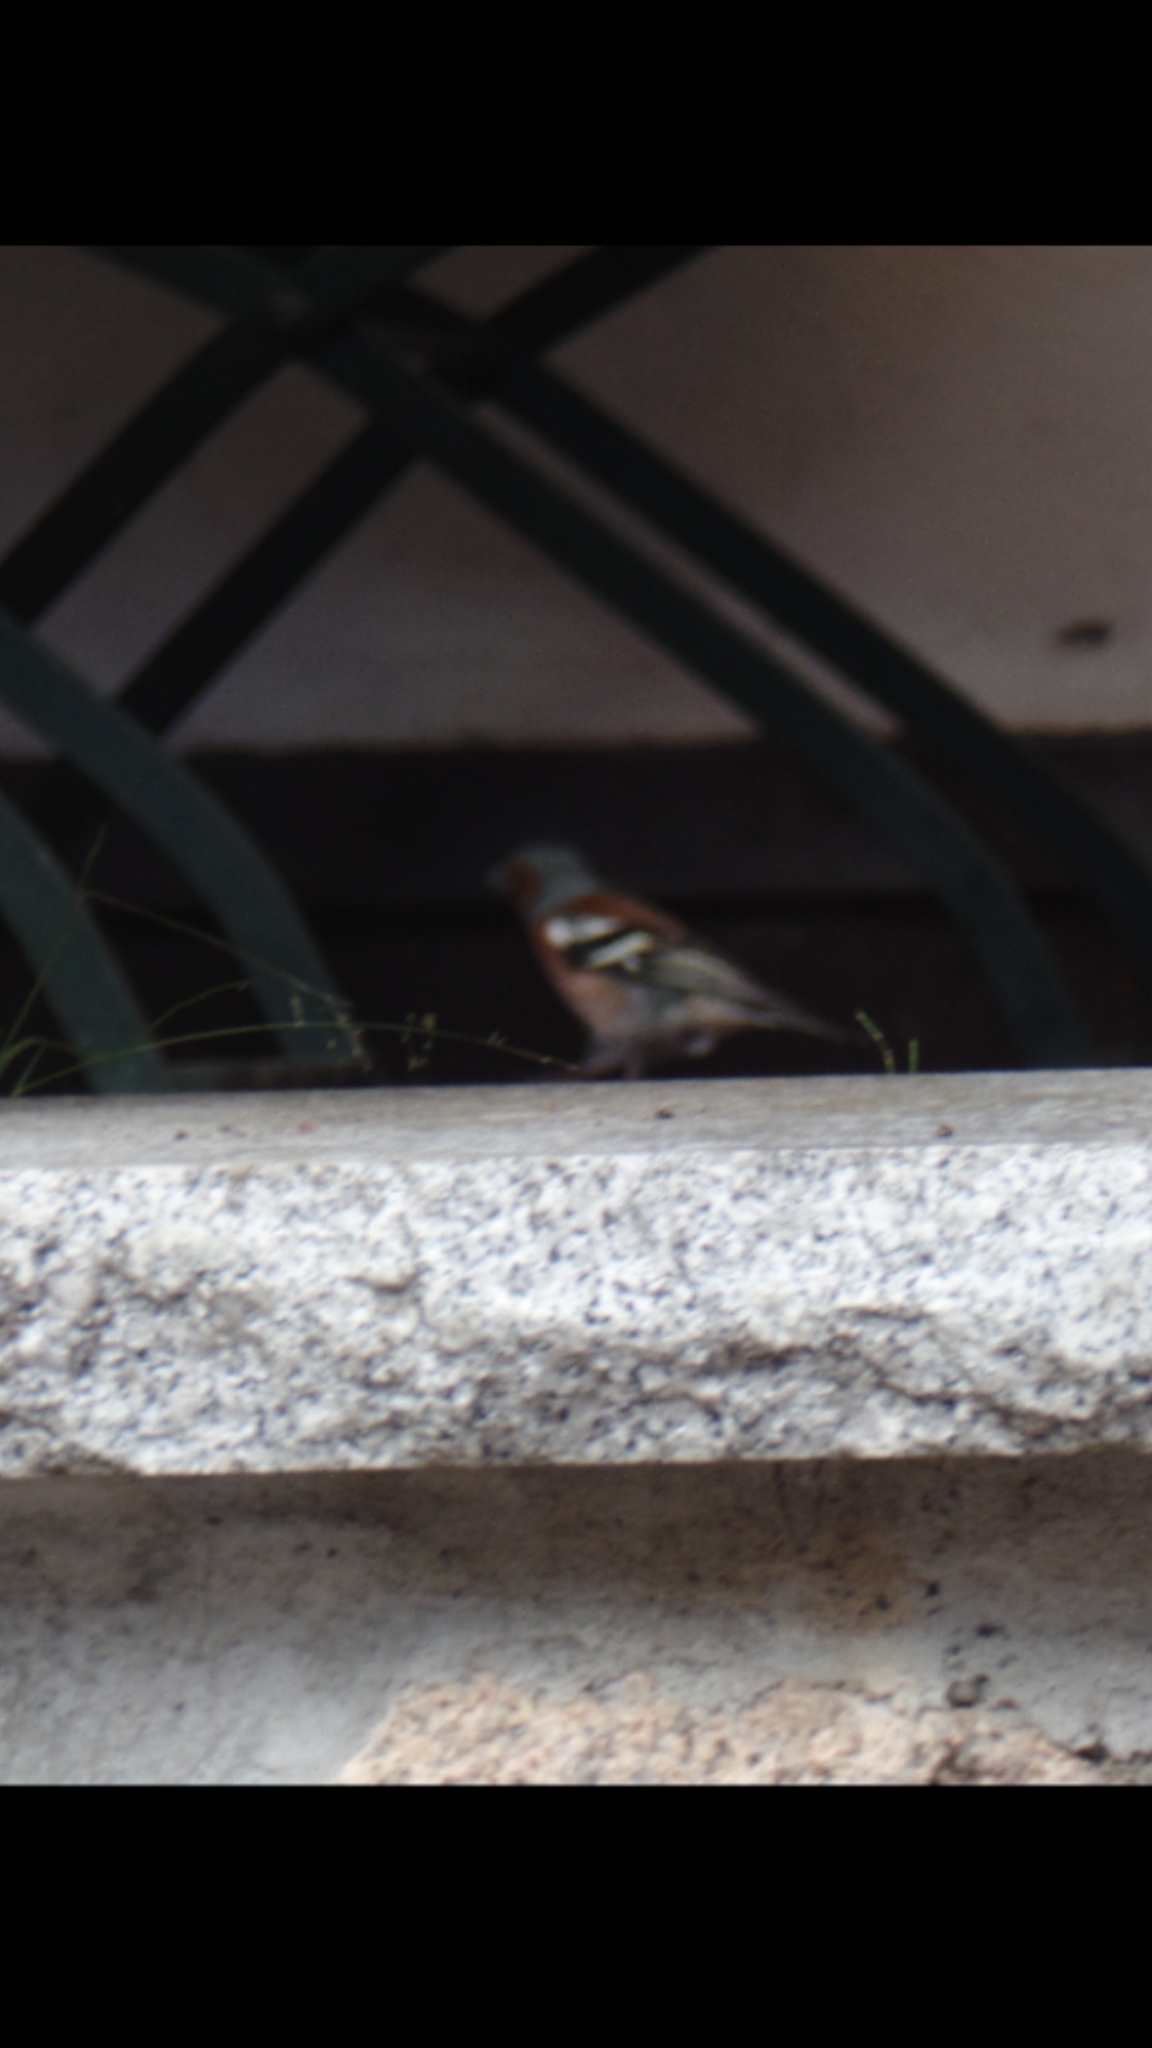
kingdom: Animalia
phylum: Chordata
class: Aves
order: Passeriformes
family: Fringillidae
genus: Fringilla
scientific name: Fringilla coelebs
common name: Common chaffinch
